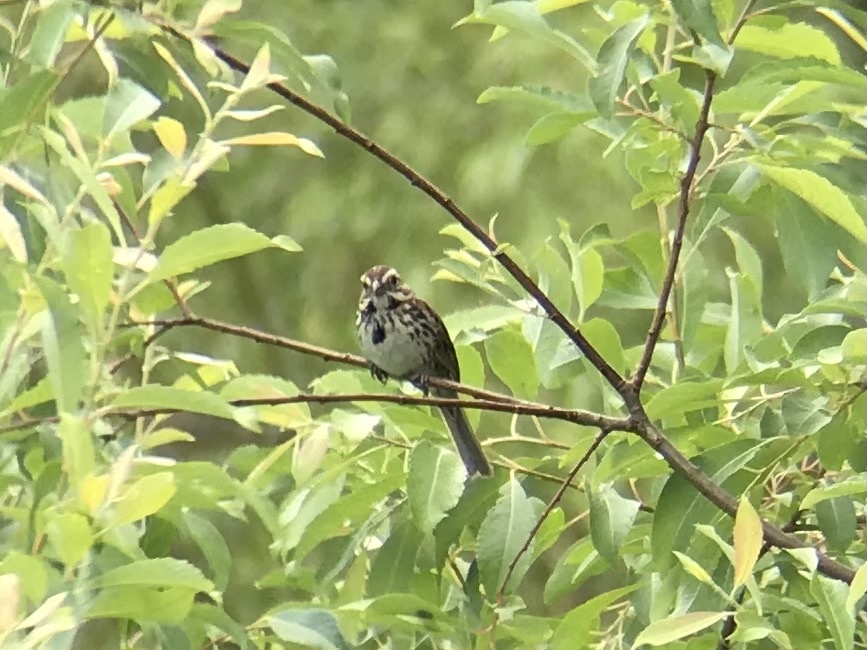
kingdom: Animalia
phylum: Chordata
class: Aves
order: Passeriformes
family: Passerellidae
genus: Melospiza
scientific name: Melospiza melodia
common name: Song sparrow
